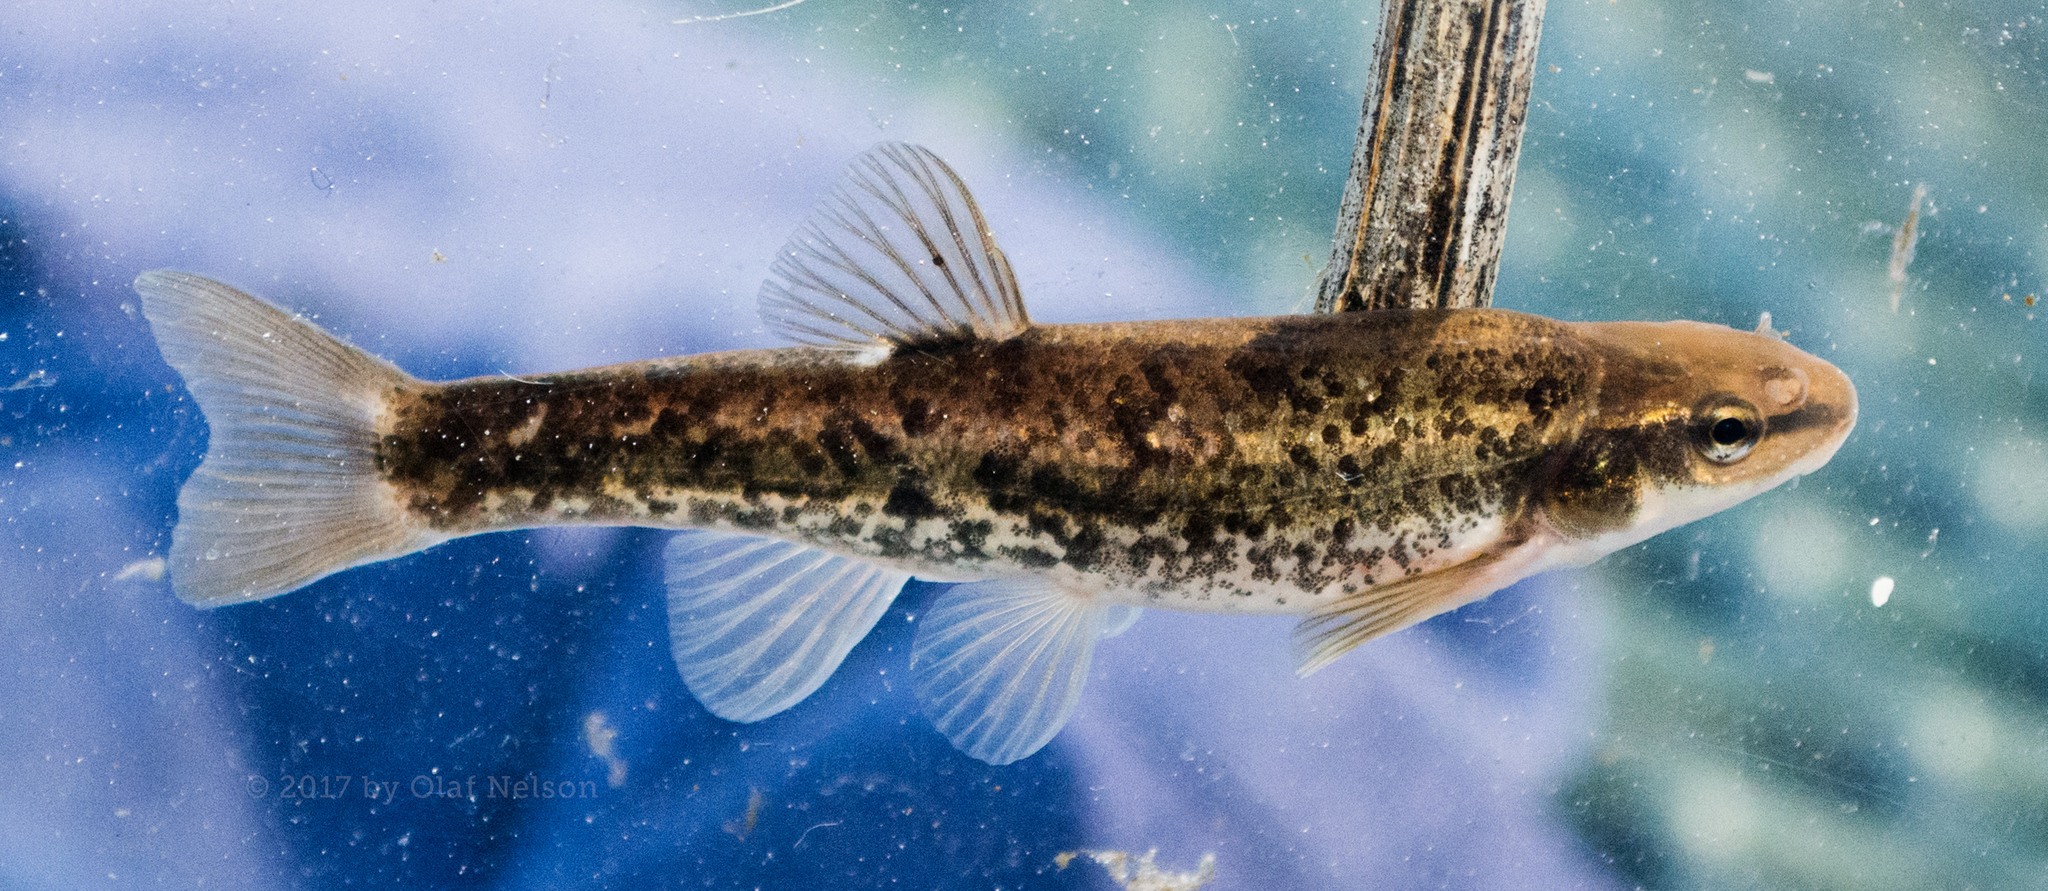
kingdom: Animalia
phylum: Chordata
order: Cypriniformes
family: Cyprinidae
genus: Rhinichthys
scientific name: Rhinichthys obtusus
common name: Western blacknose dace
